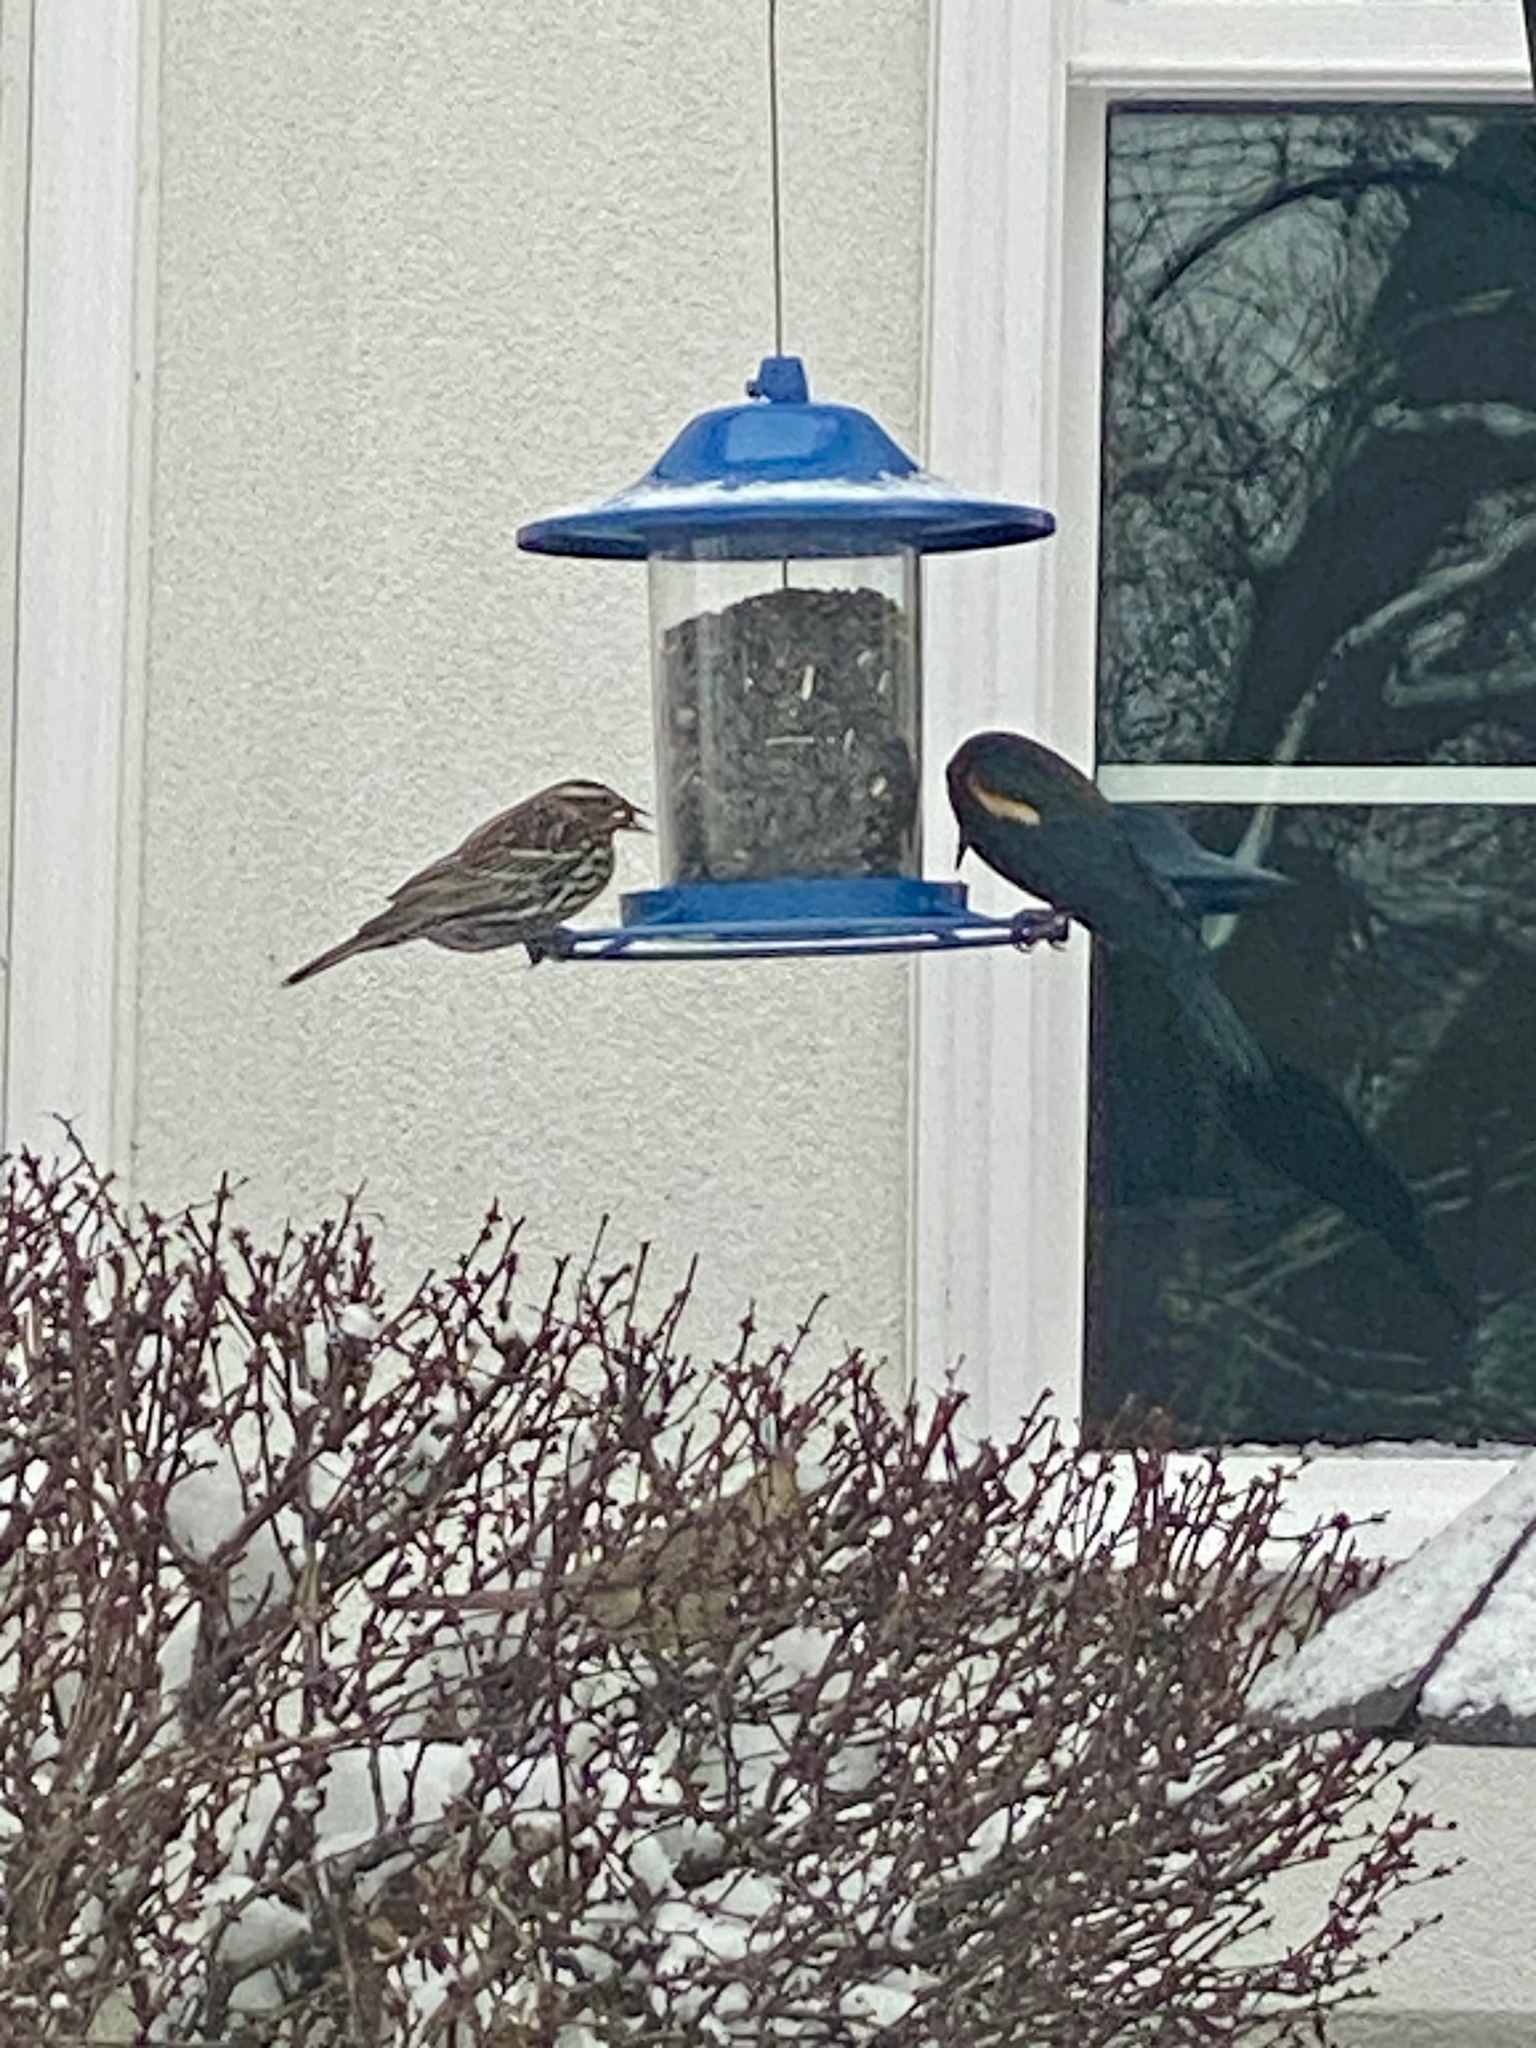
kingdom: Animalia
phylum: Chordata
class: Aves
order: Passeriformes
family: Icteridae
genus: Agelaius
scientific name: Agelaius phoeniceus
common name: Red-winged blackbird
